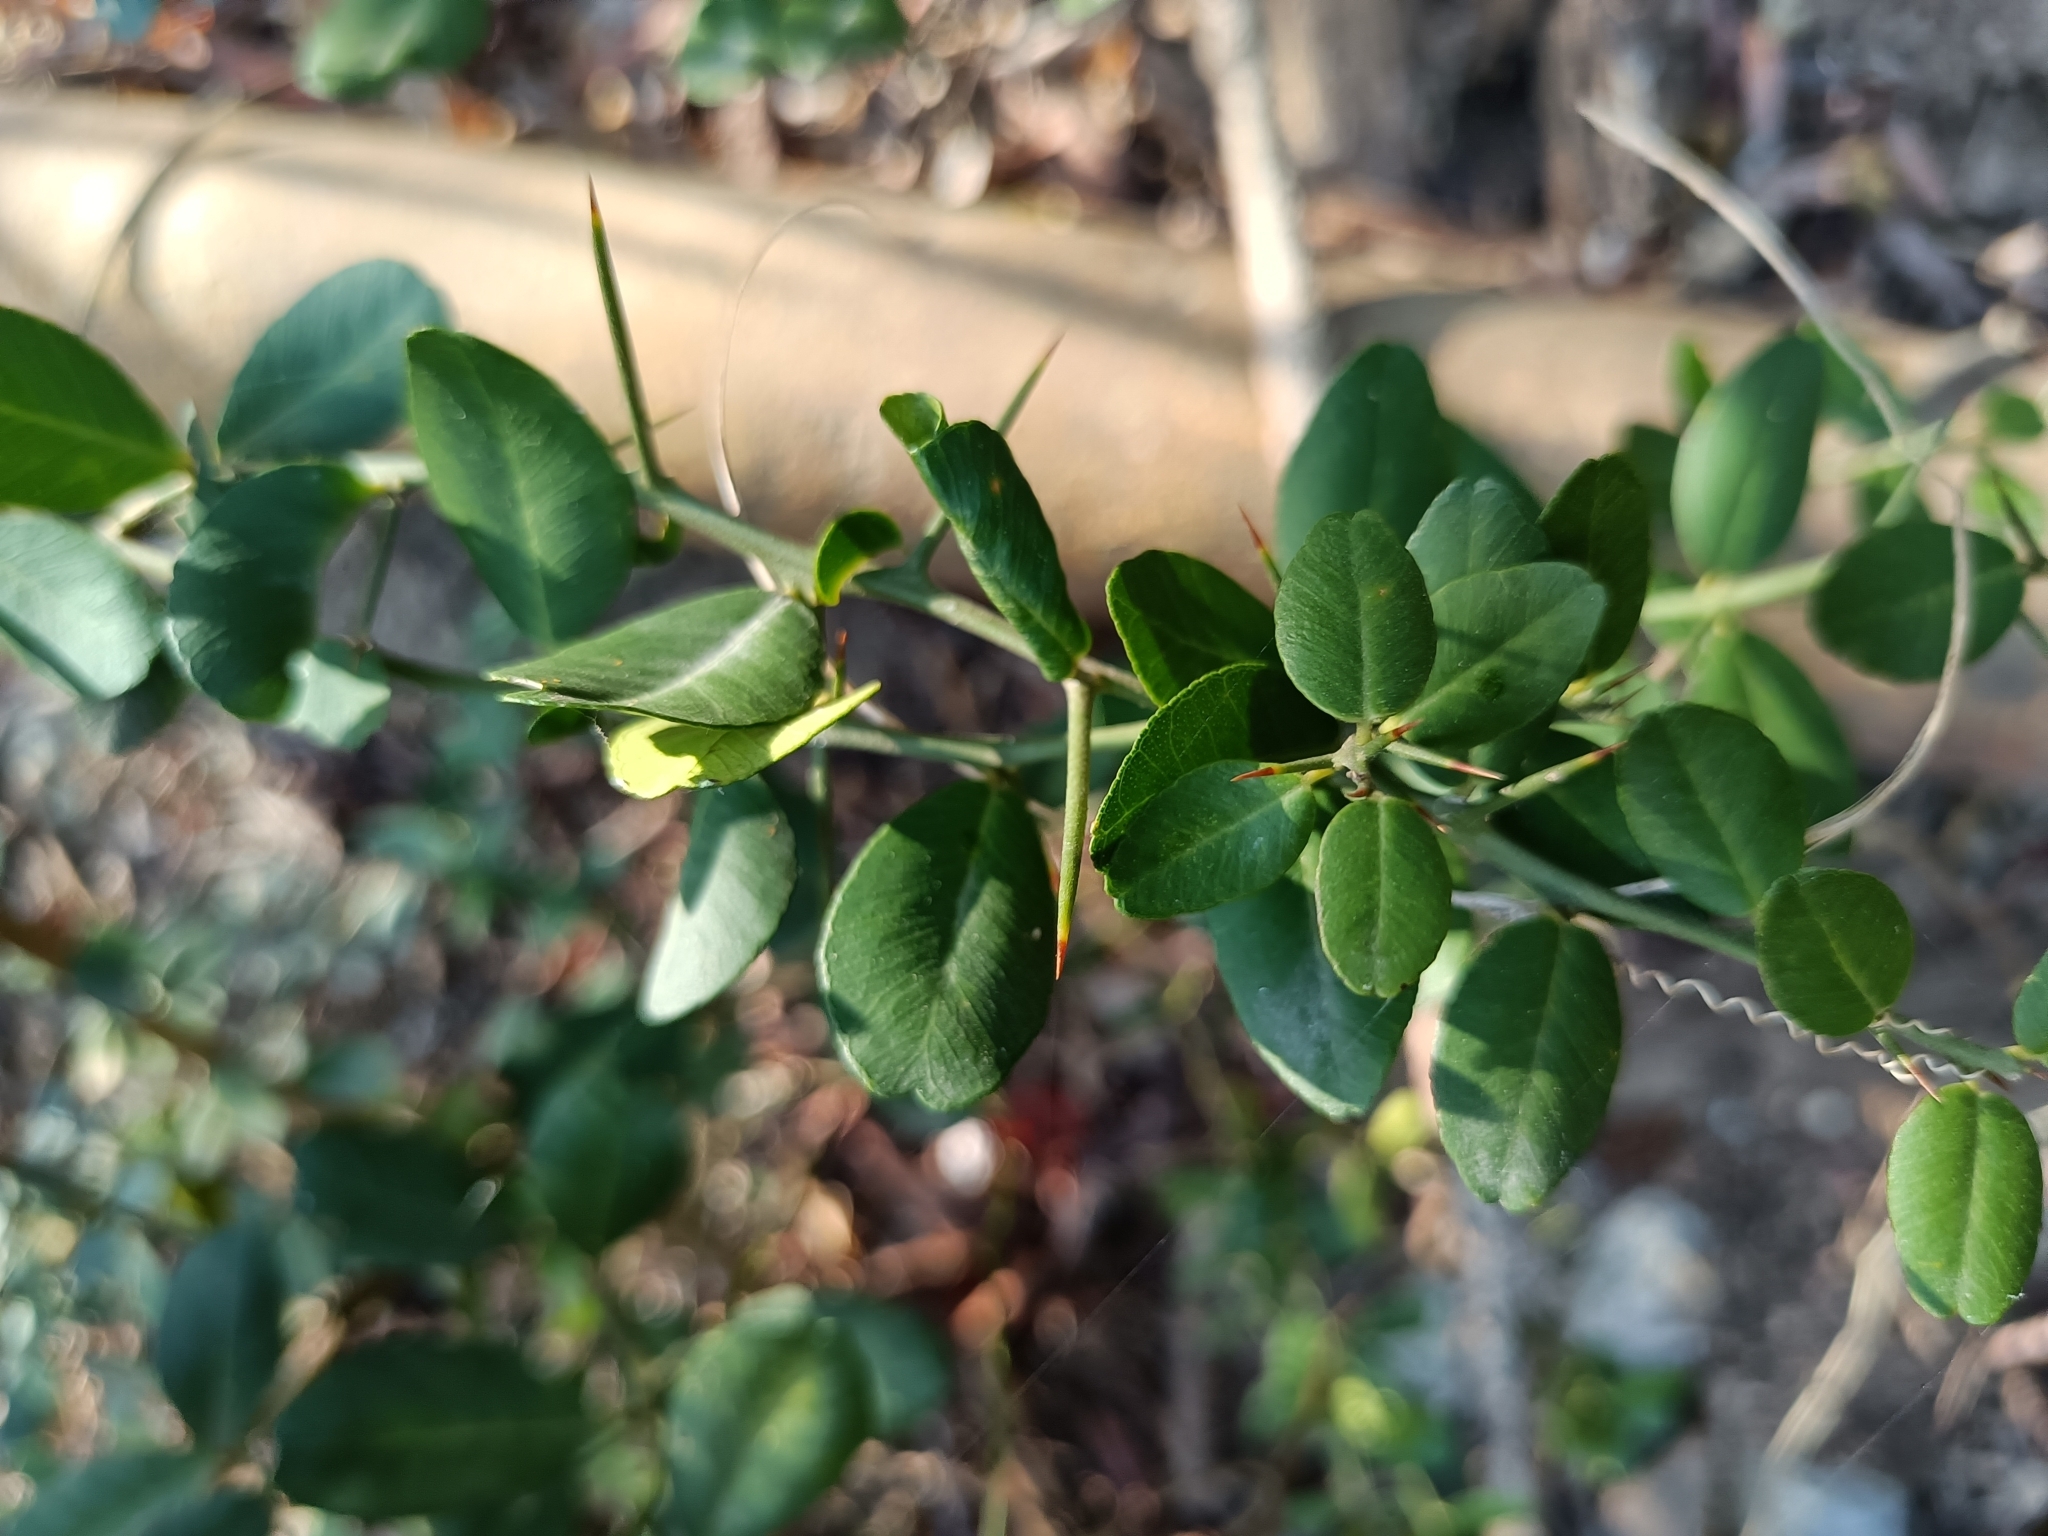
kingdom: Plantae
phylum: Tracheophyta
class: Magnoliopsida
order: Sapindales
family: Rutaceae
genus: Atalantia
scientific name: Atalantia buxifolia
